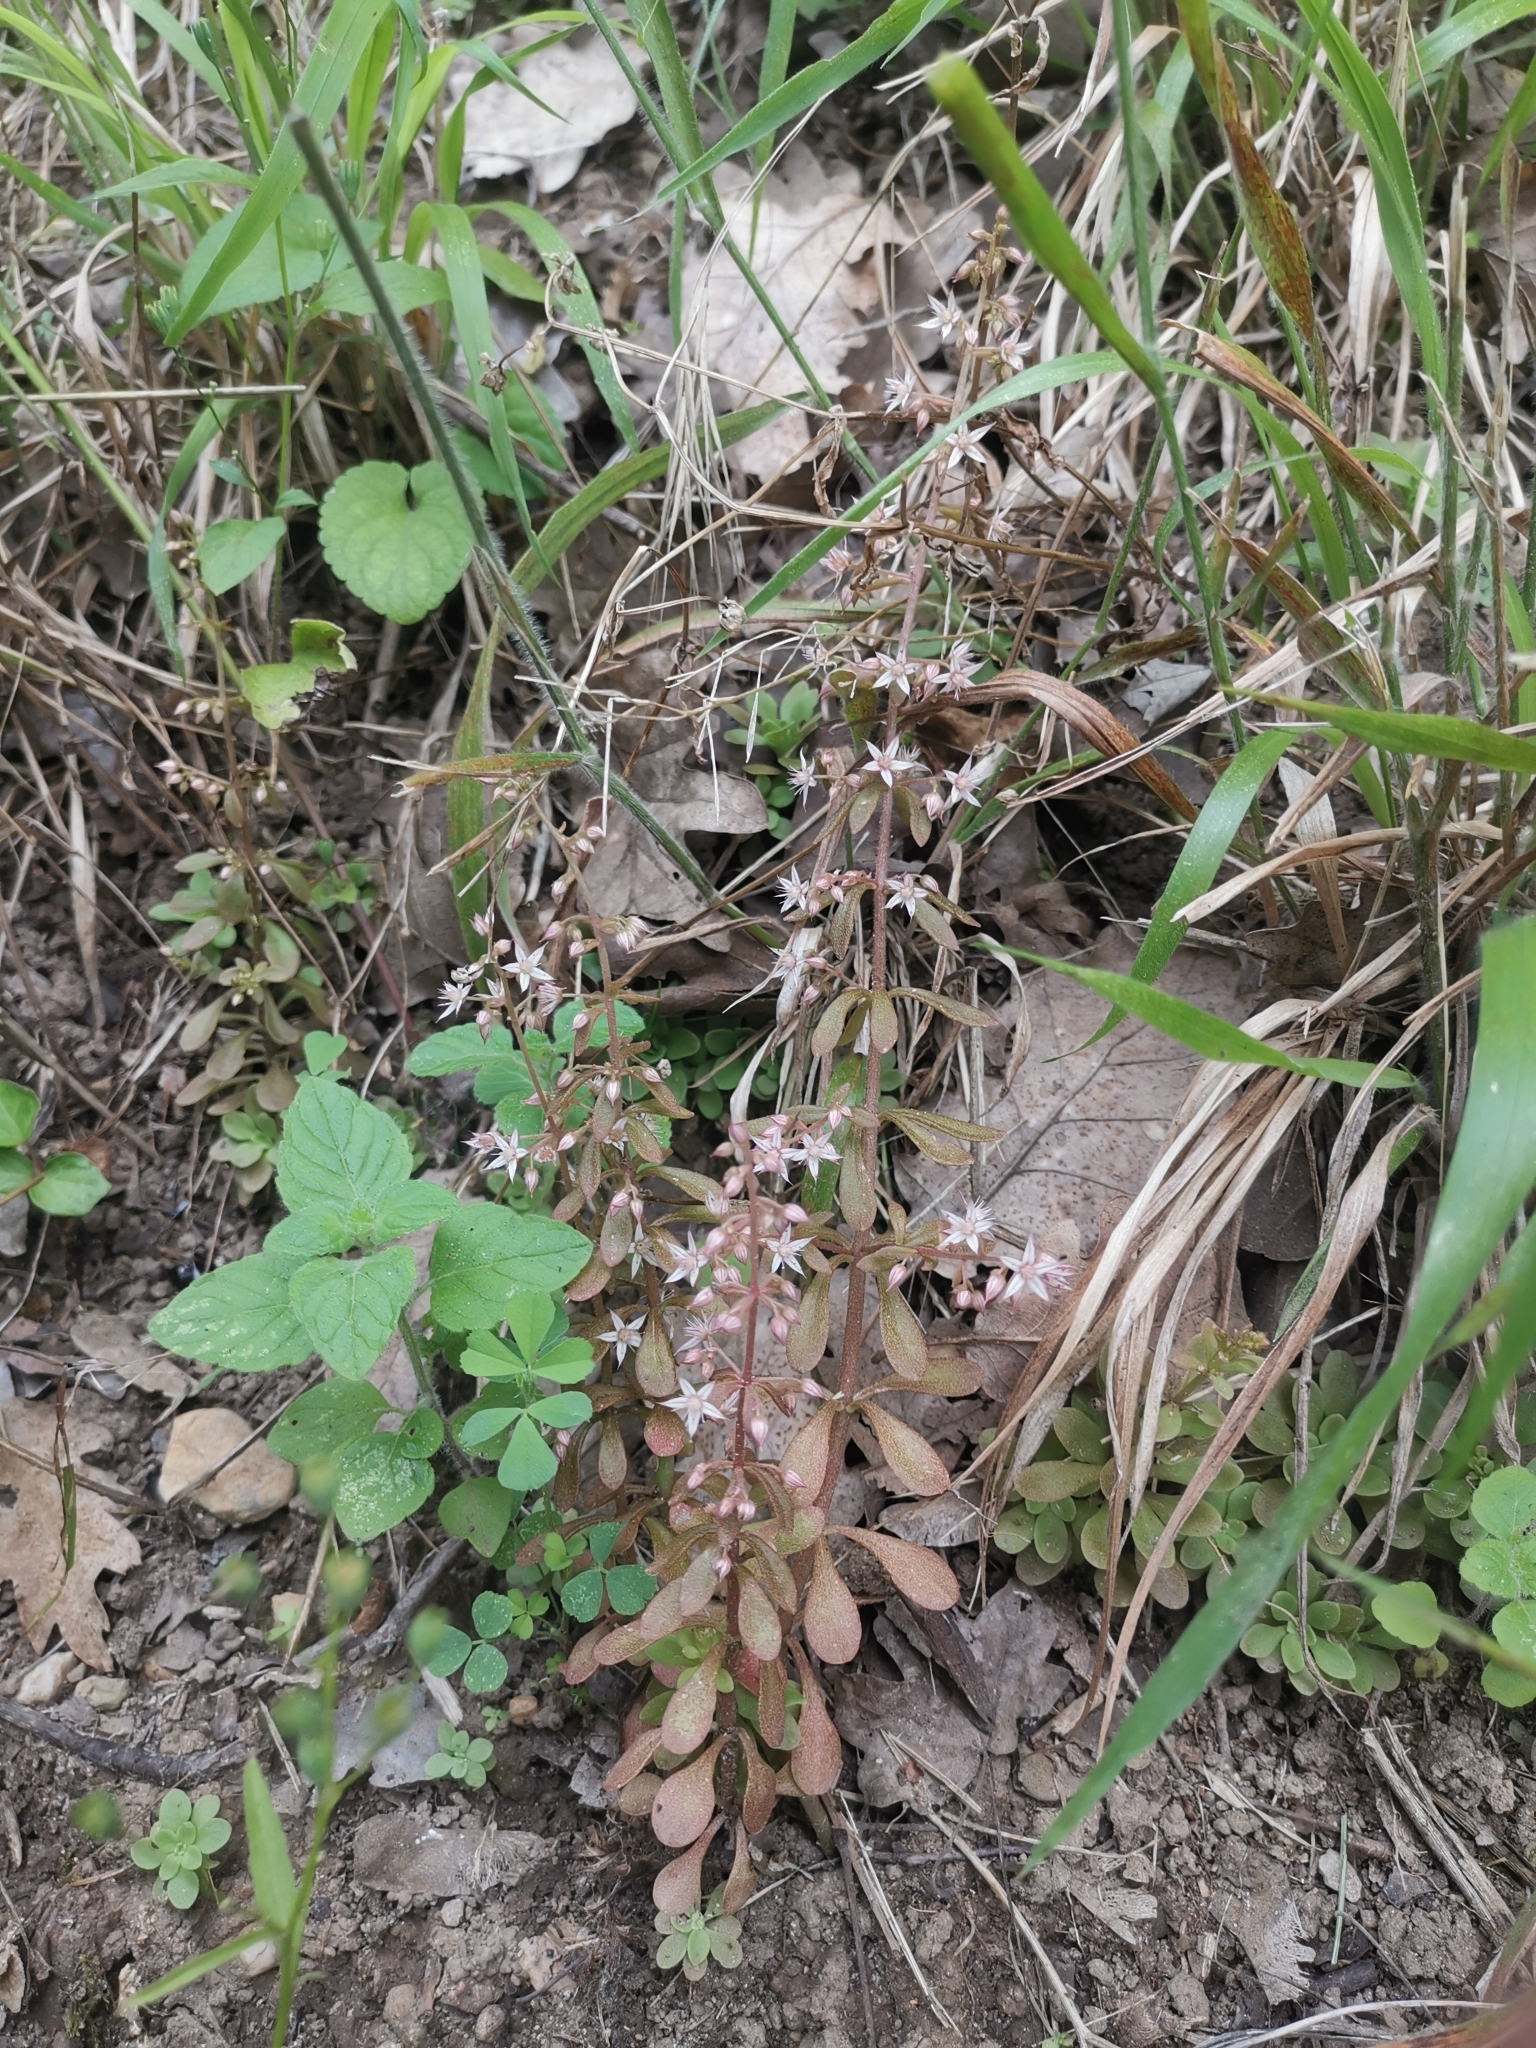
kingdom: Plantae
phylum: Tracheophyta
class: Magnoliopsida
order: Saxifragales
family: Crassulaceae
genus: Sedum
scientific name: Sedum cepaea
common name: Pink stonecrop
